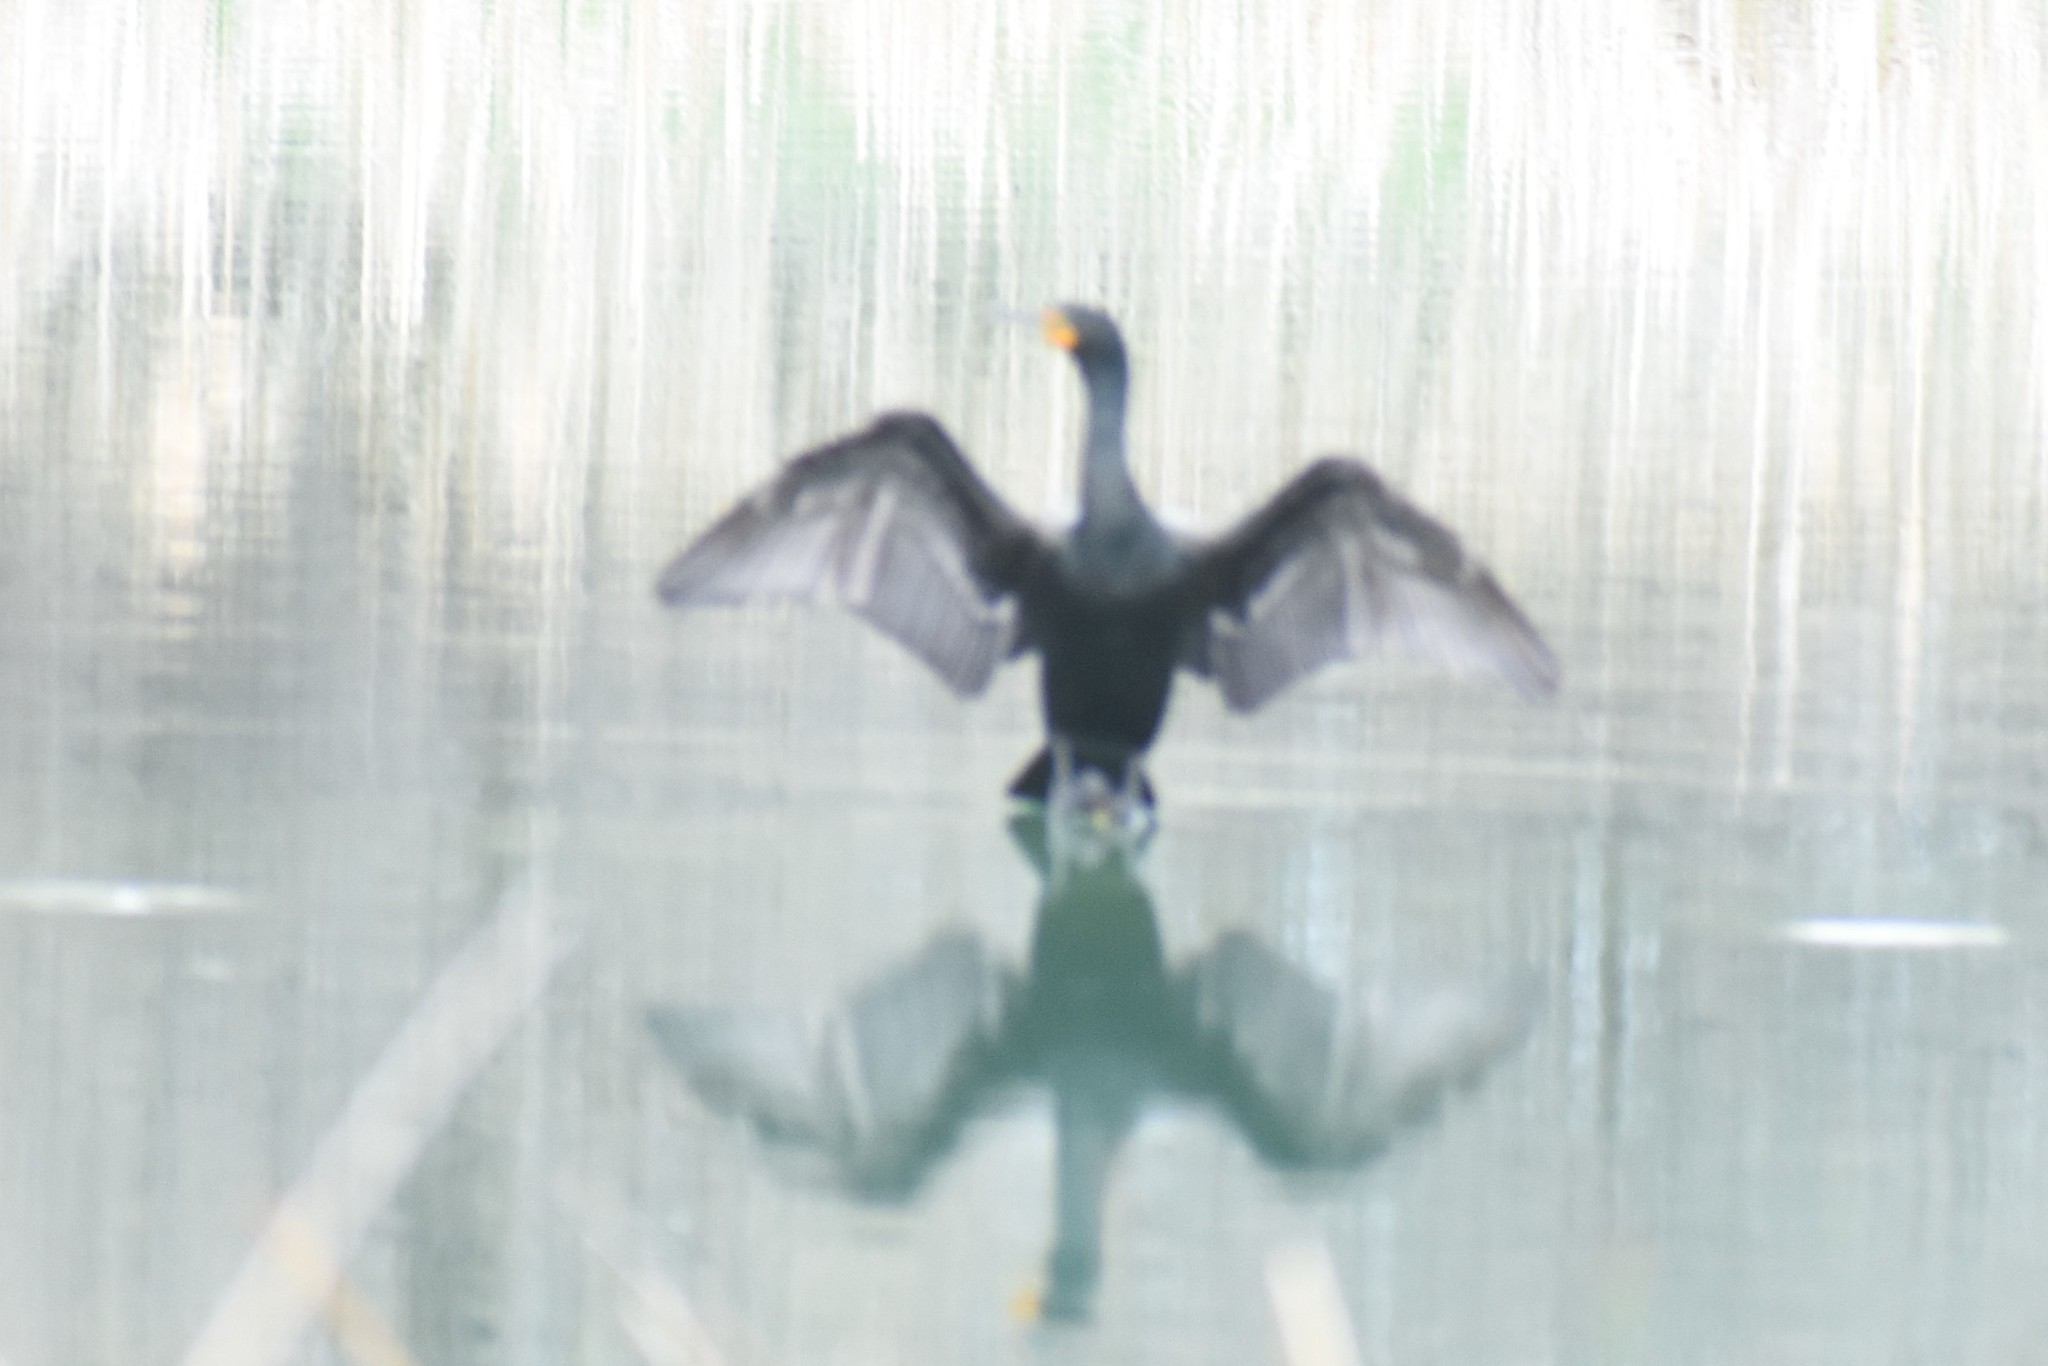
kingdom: Animalia
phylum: Chordata
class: Aves
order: Suliformes
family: Phalacrocoracidae
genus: Phalacrocorax
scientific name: Phalacrocorax auritus
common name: Double-crested cormorant
